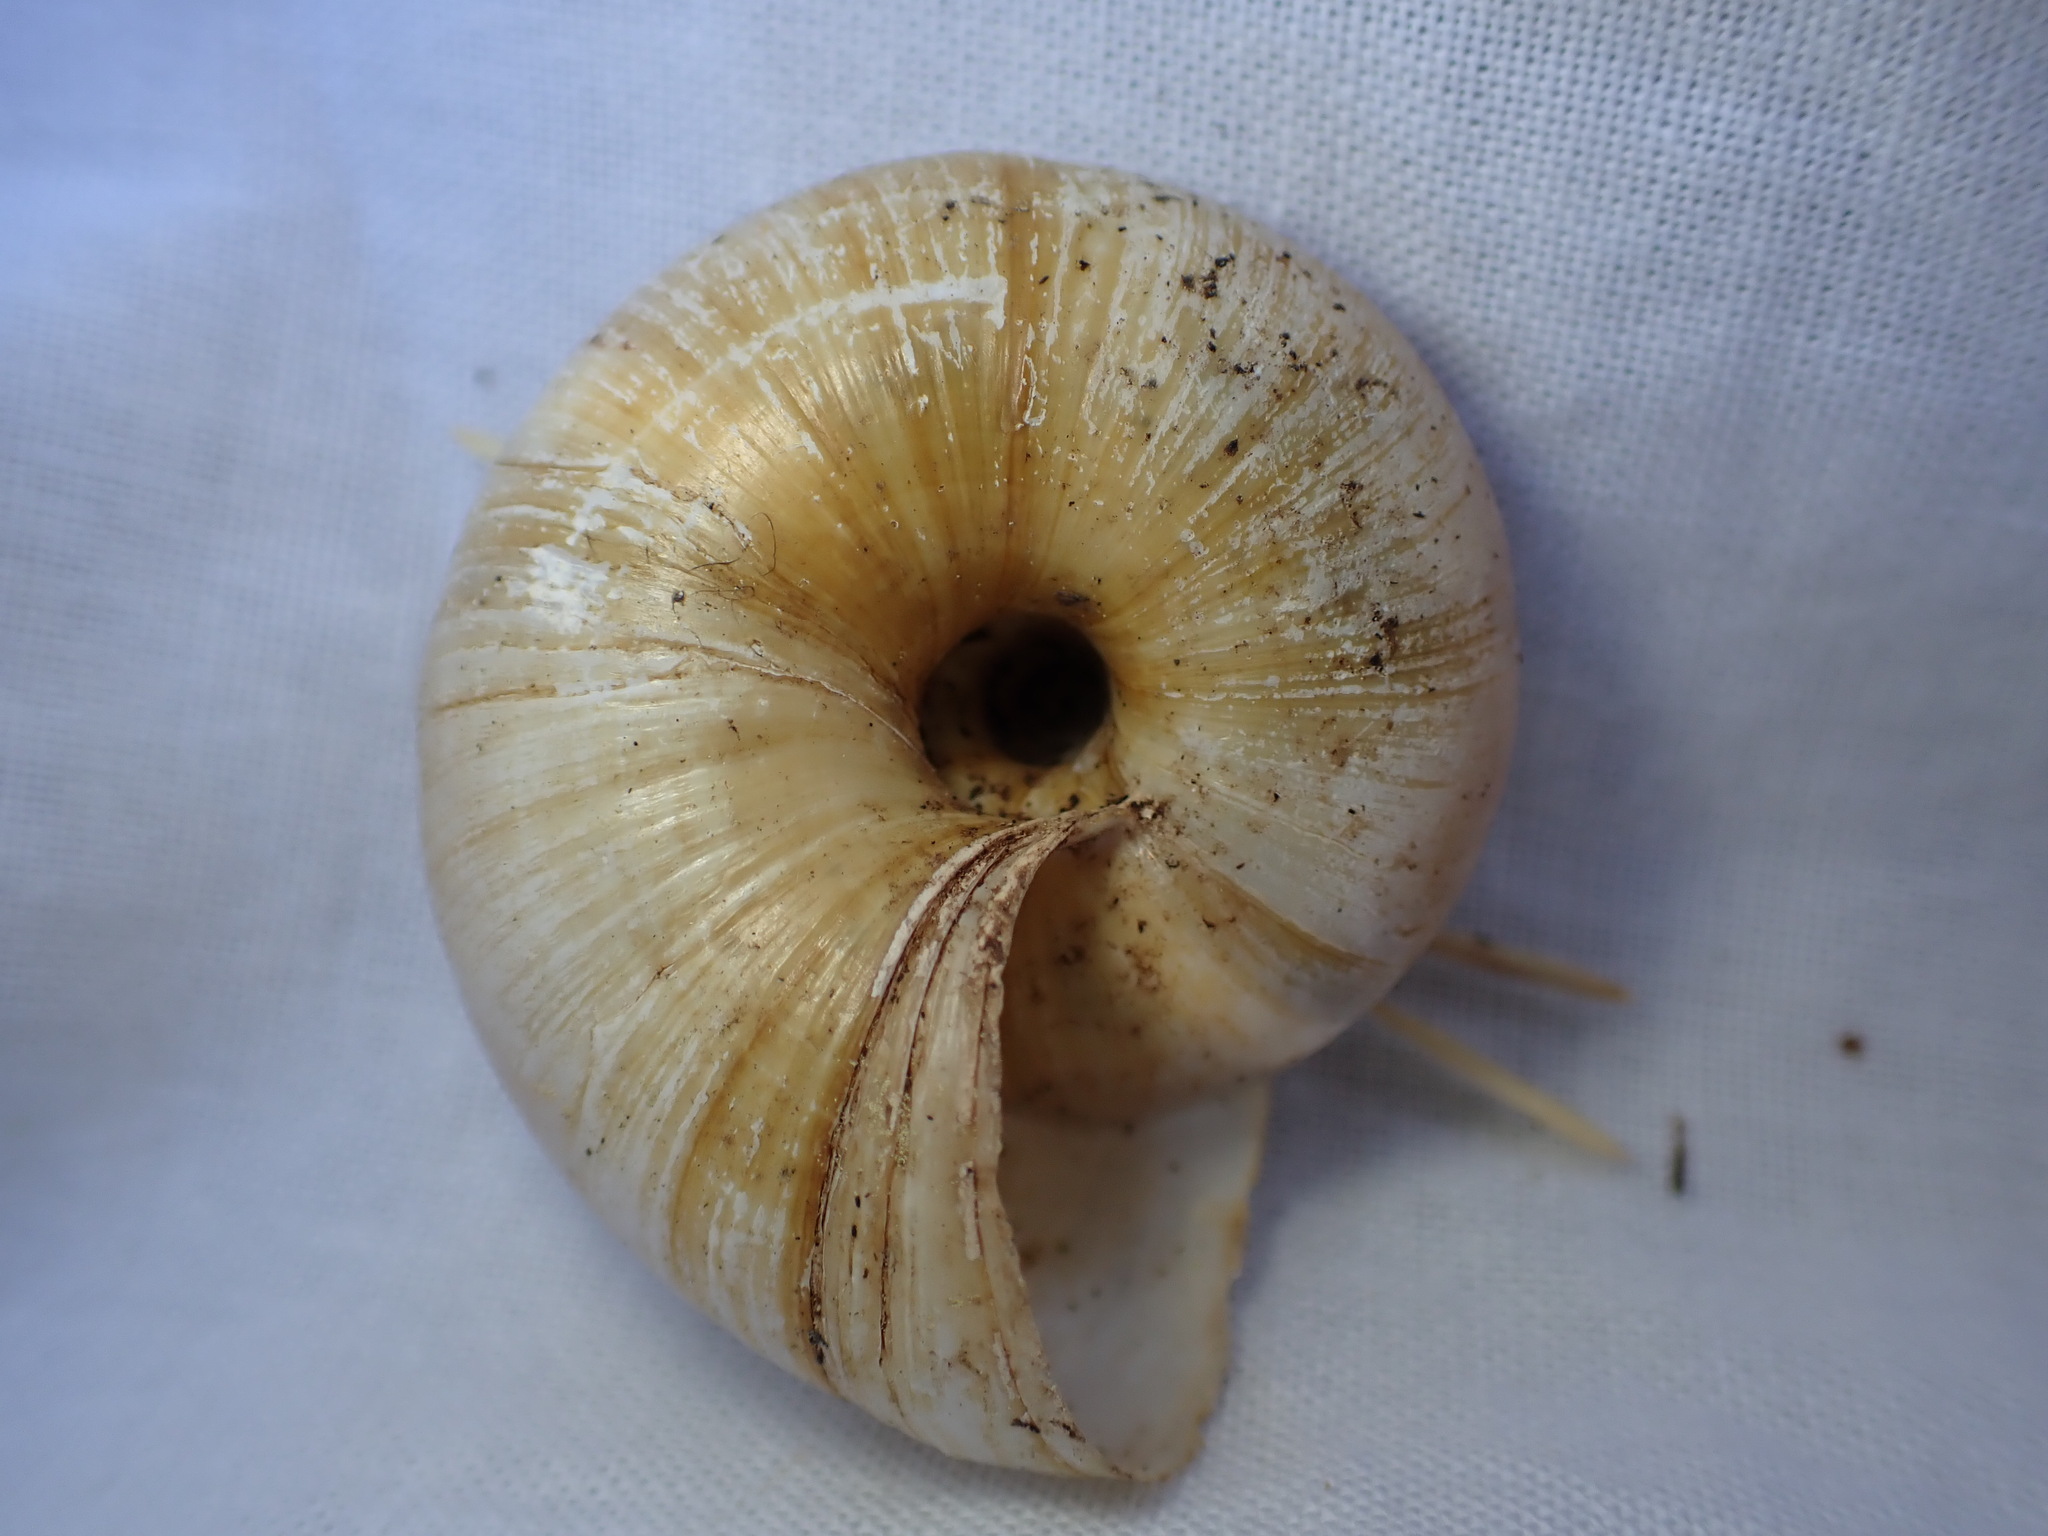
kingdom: Animalia
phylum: Mollusca
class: Gastropoda
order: Stylommatophora
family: Zonitidae
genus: Zonites
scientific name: Zonites algirus
